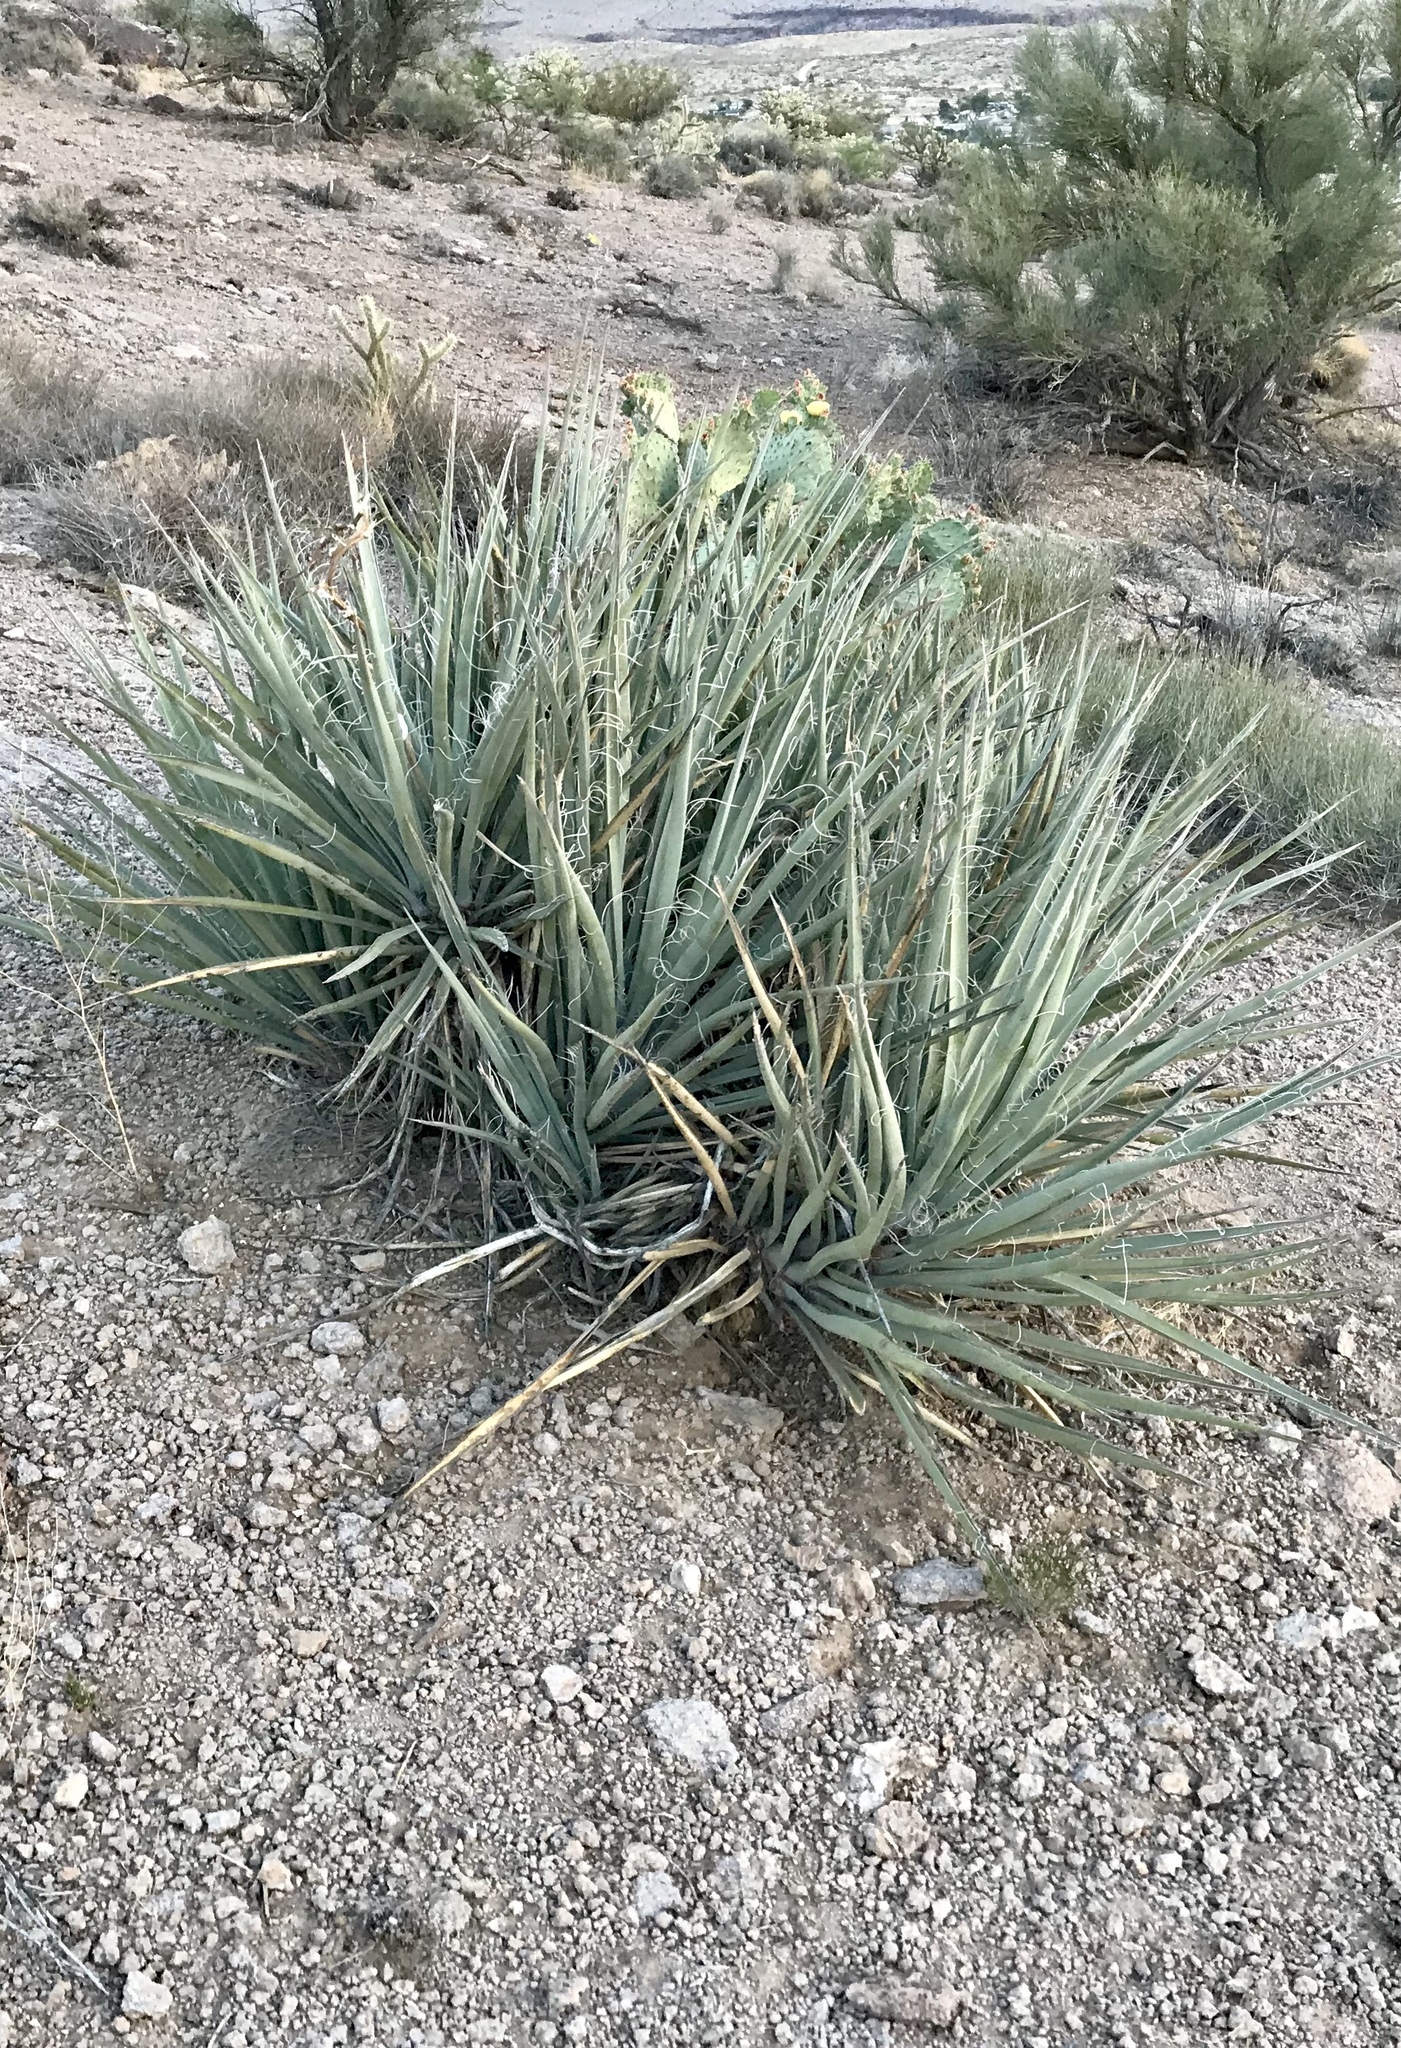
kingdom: Plantae
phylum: Tracheophyta
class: Liliopsida
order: Asparagales
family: Asparagaceae
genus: Yucca
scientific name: Yucca baccata
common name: Banana yucca
